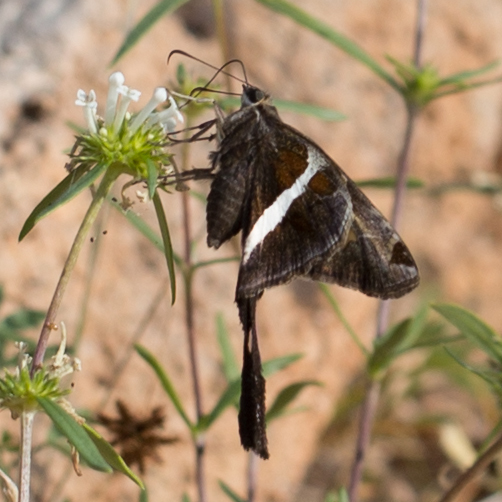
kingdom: Animalia
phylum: Arthropoda
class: Insecta
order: Lepidoptera
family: Hesperiidae
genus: Chioides
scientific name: Chioides catillus
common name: Silverbanded skipper
